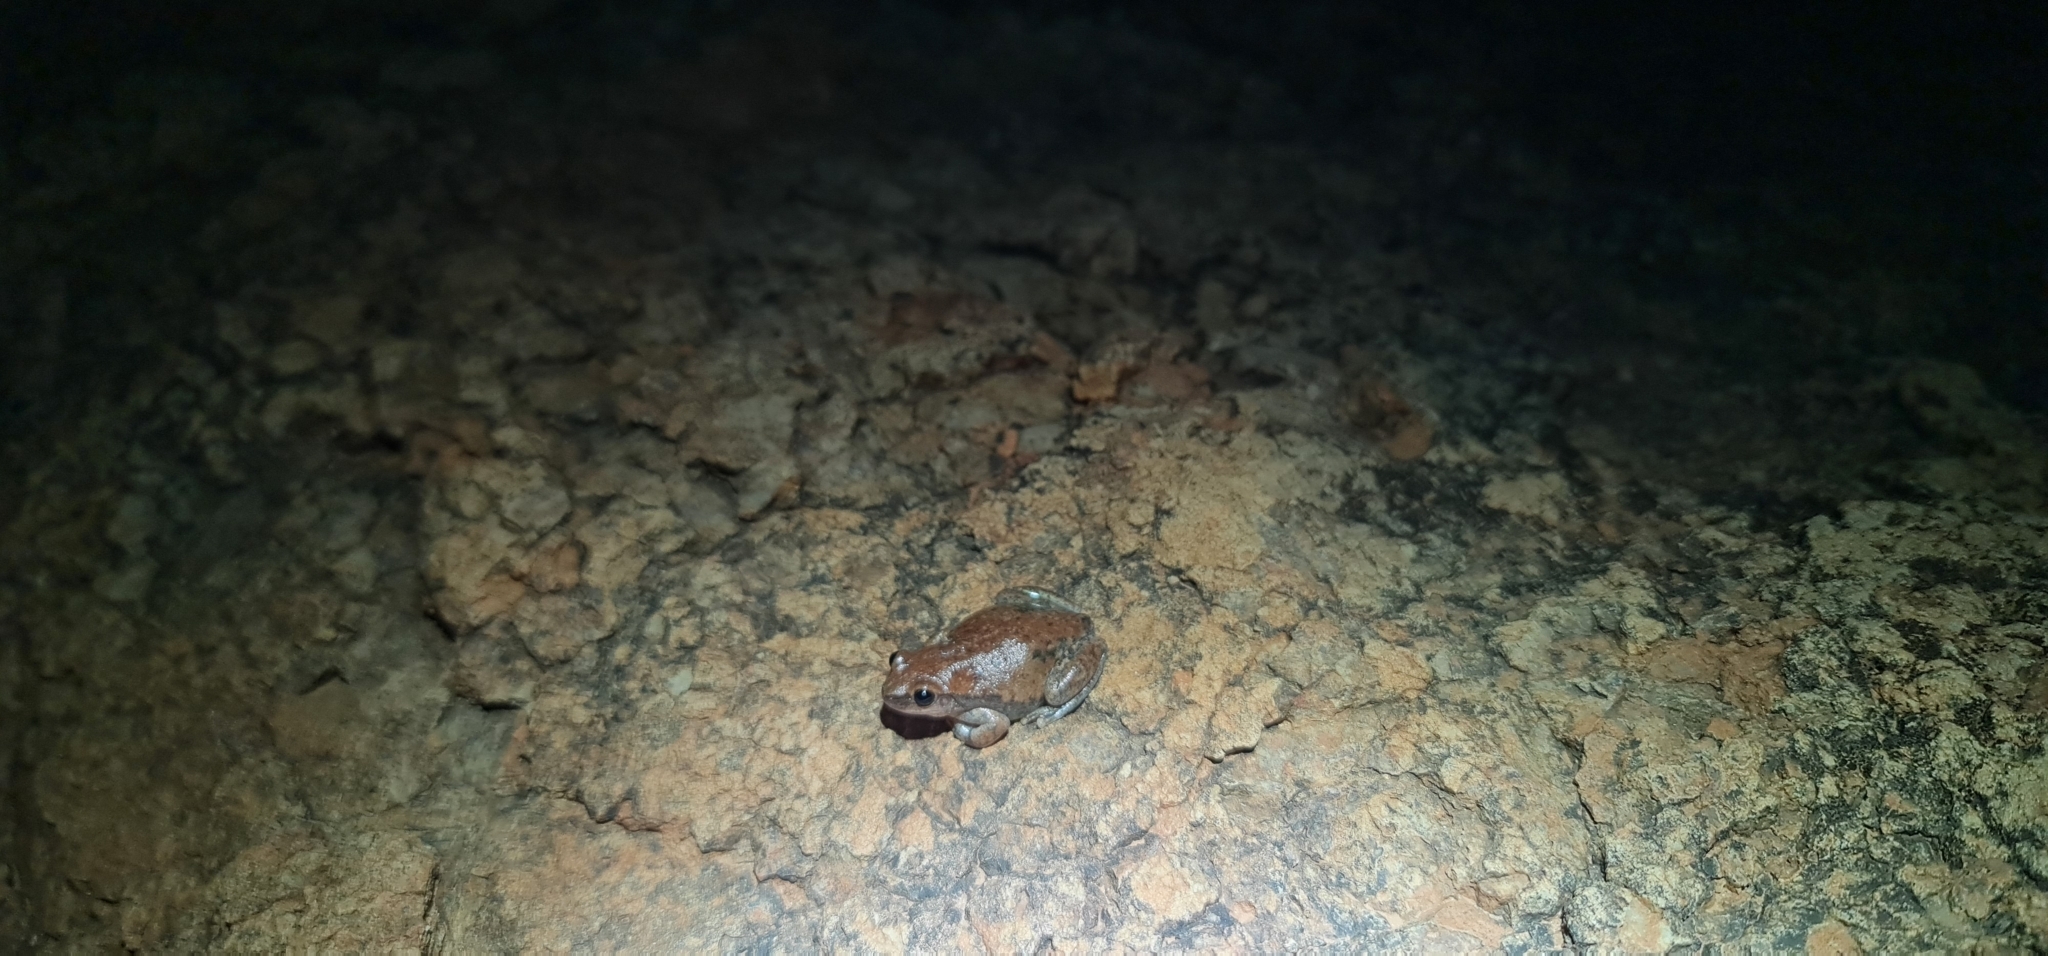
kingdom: Animalia
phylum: Chordata
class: Amphibia
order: Anura
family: Pelodryadidae
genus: Litoria
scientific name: Litoria rubella
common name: Desert tree frog
